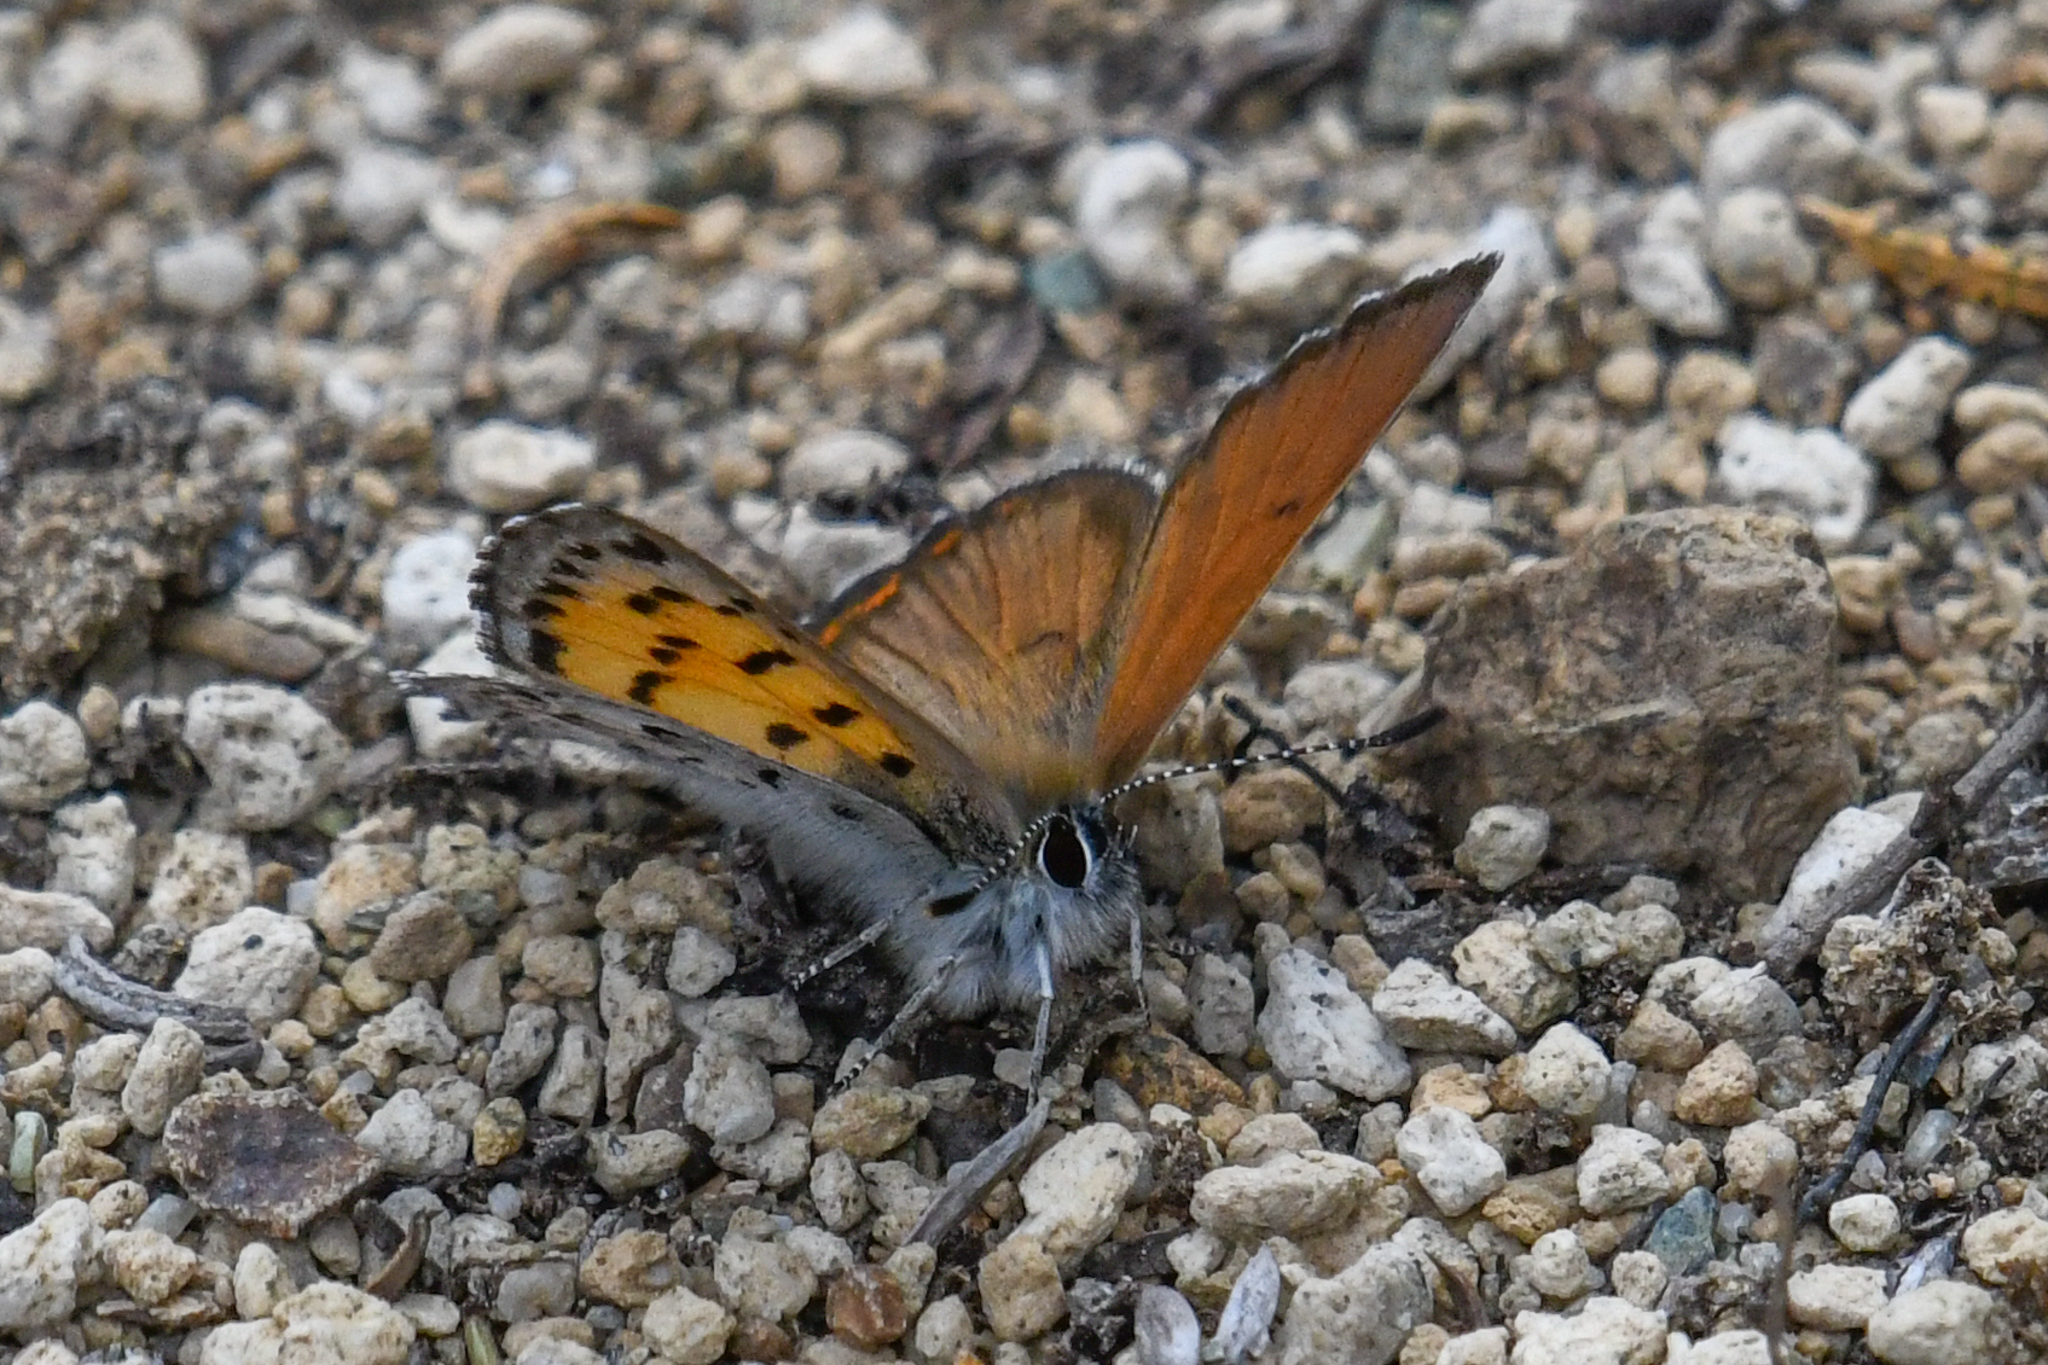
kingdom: Animalia
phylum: Arthropoda
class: Insecta
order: Lepidoptera
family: Lycaenidae
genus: Tharsalea
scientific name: Tharsalea mariposa
